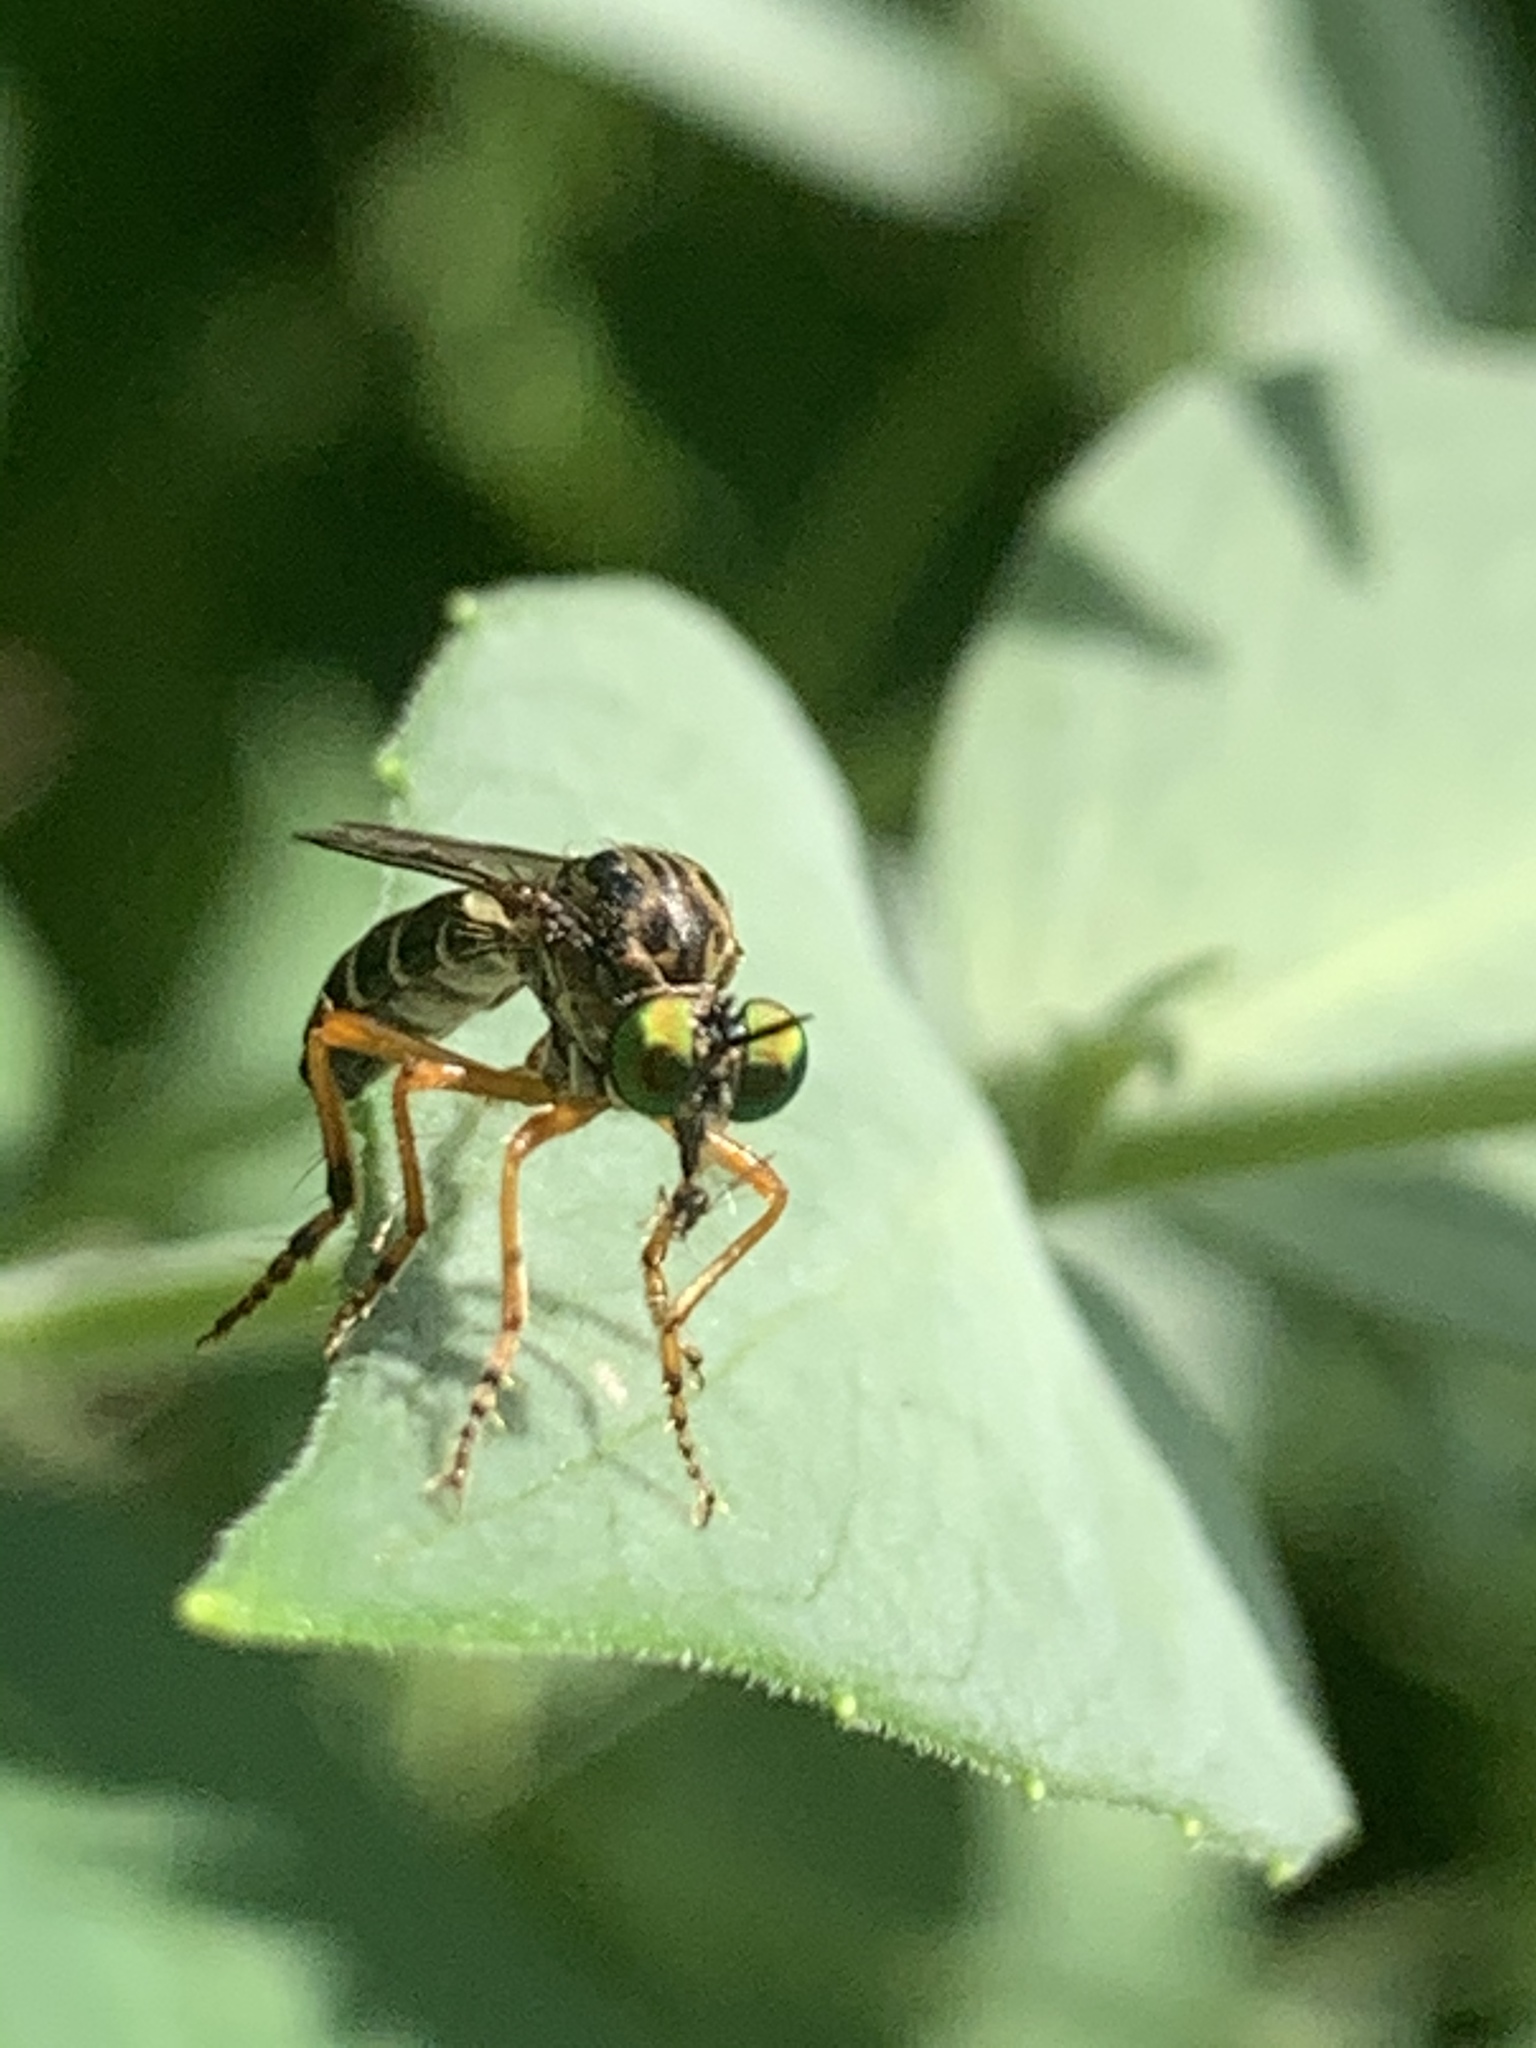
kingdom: Animalia
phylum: Arthropoda
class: Insecta
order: Diptera
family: Asilidae
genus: Taracticus
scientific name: Taracticus octopunctatus
